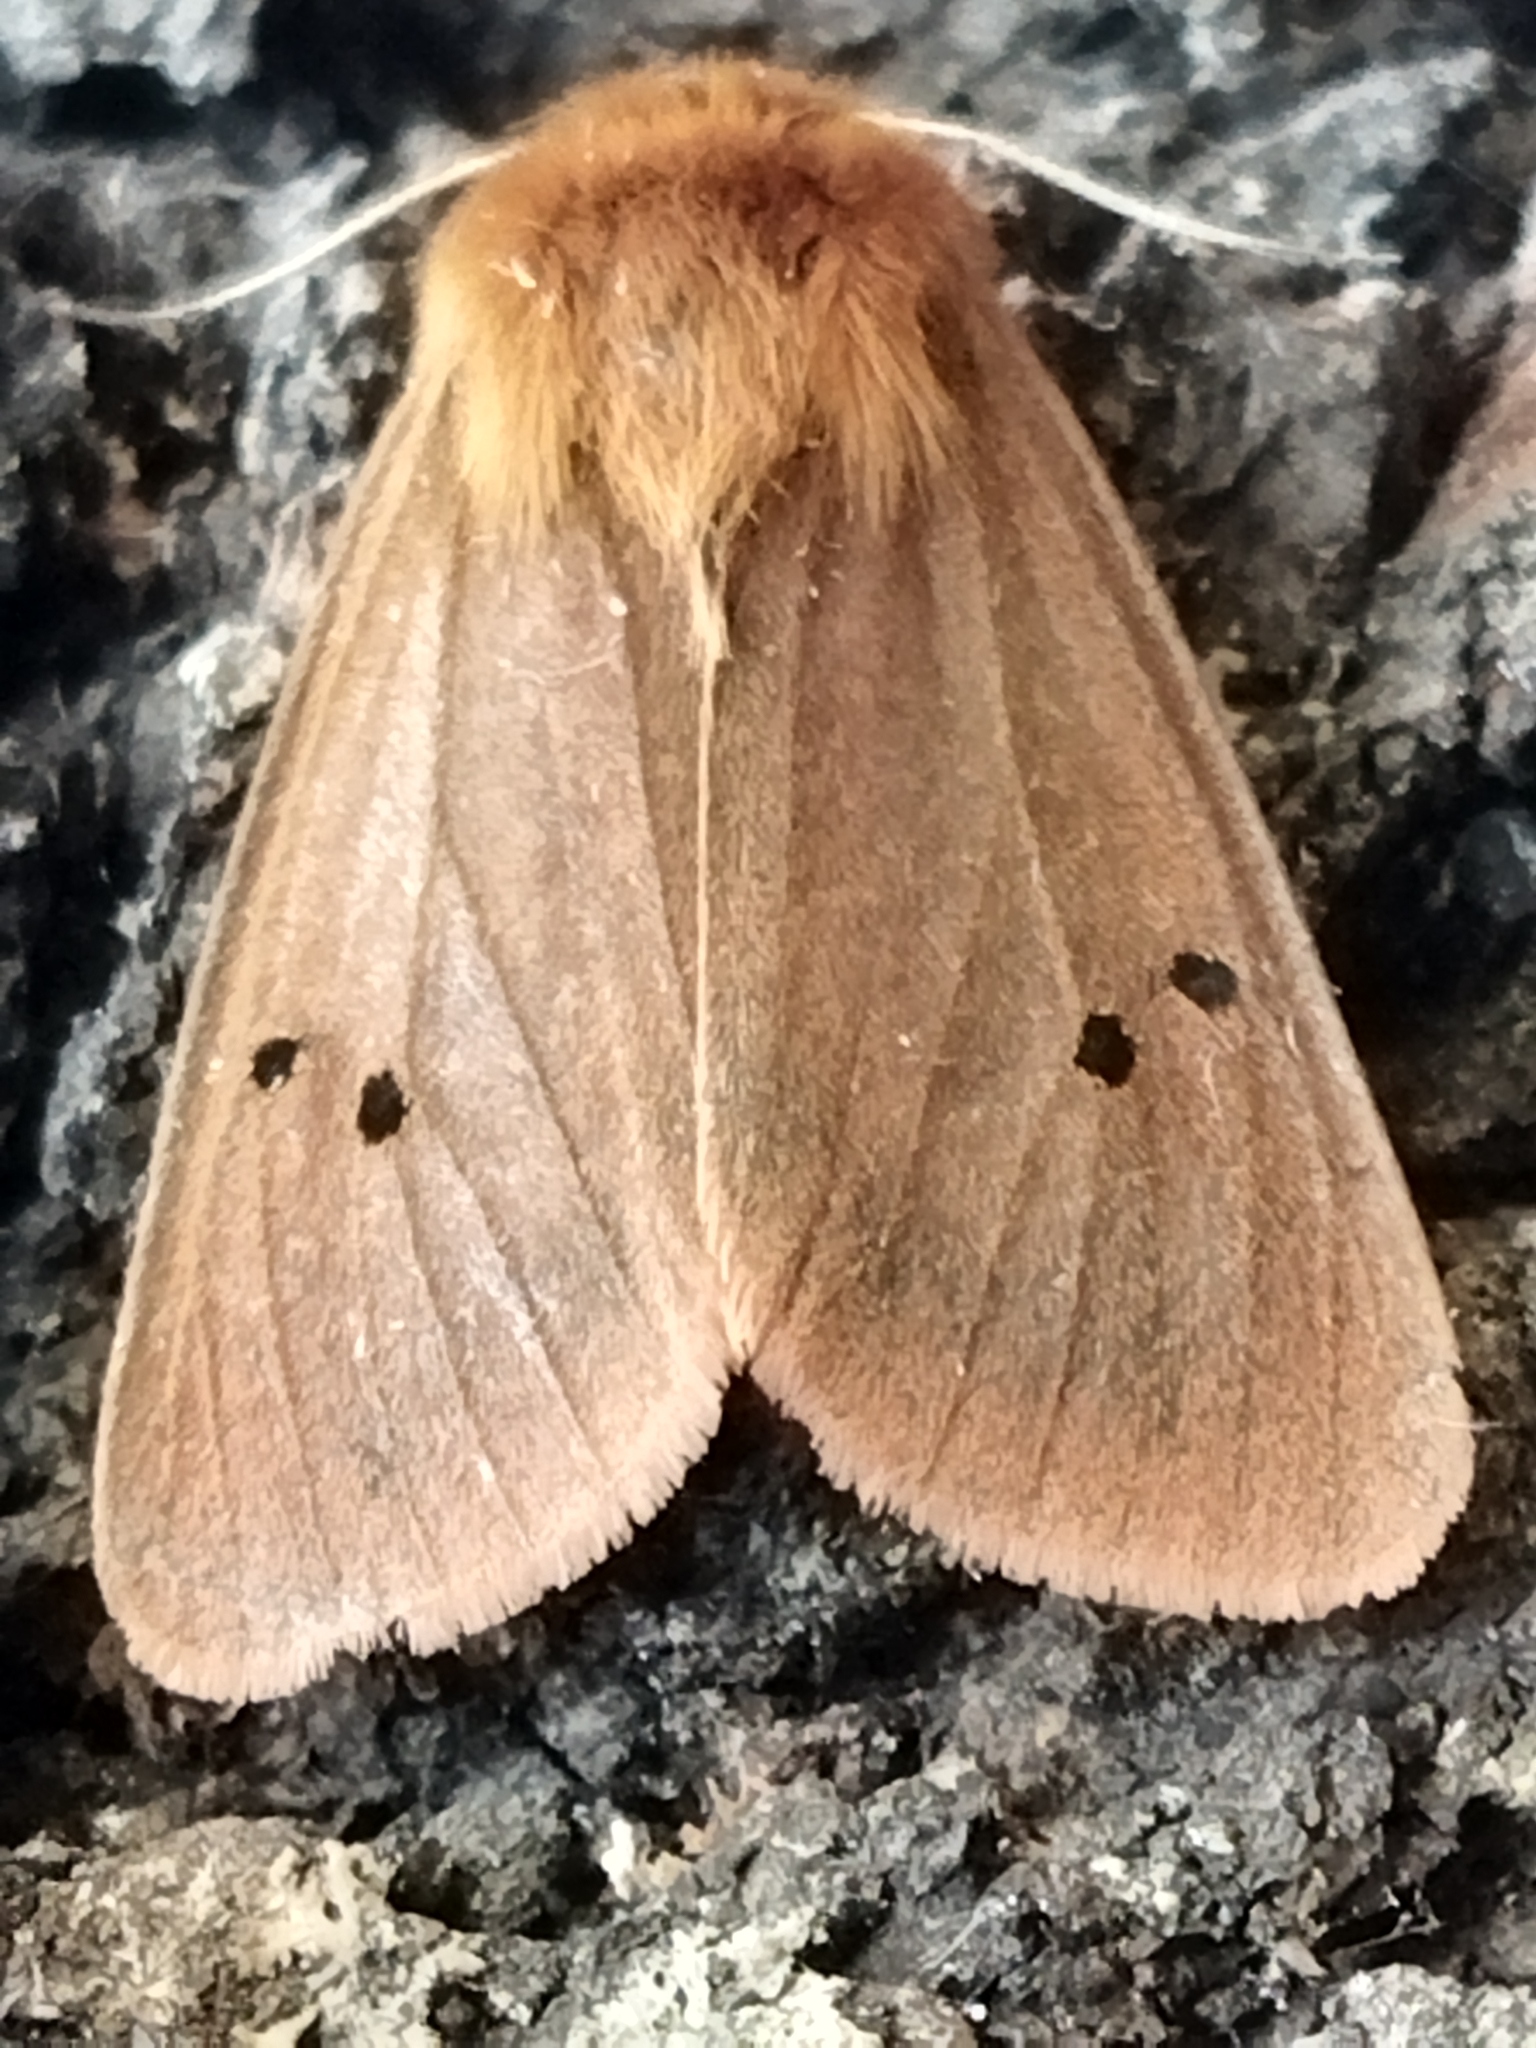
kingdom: Animalia
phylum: Arthropoda
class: Insecta
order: Lepidoptera
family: Erebidae
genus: Phragmatobia
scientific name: Phragmatobia fuliginosa
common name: Ruby tiger
